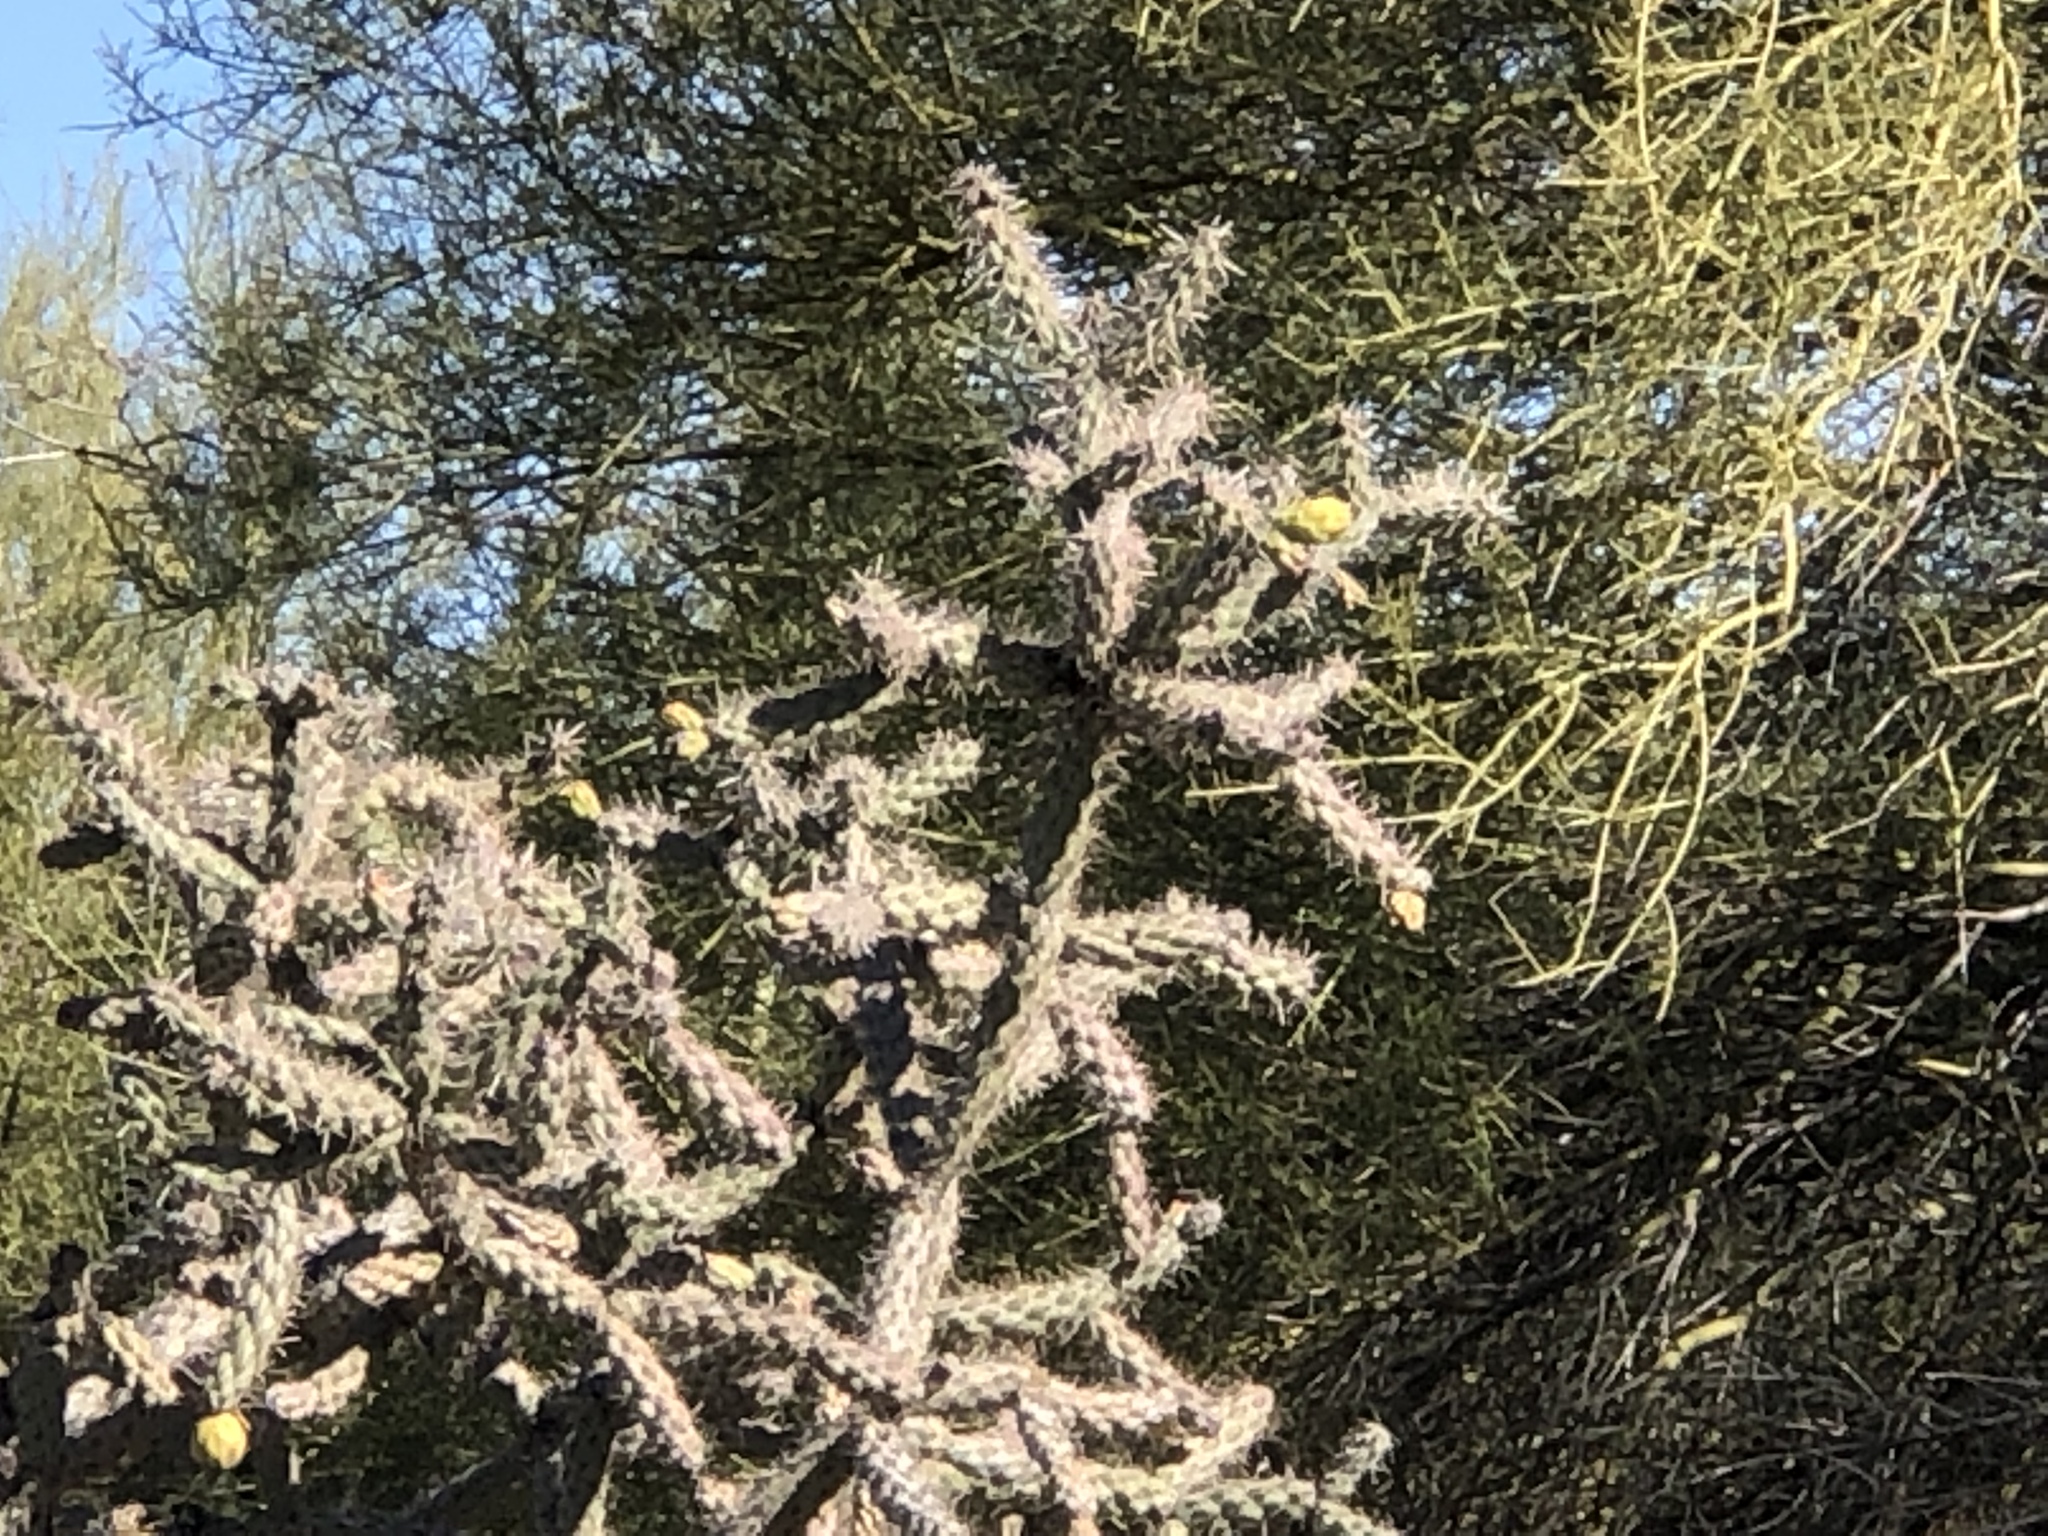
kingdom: Plantae
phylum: Tracheophyta
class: Magnoliopsida
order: Caryophyllales
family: Cactaceae
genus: Cylindropuntia
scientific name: Cylindropuntia thurberi
